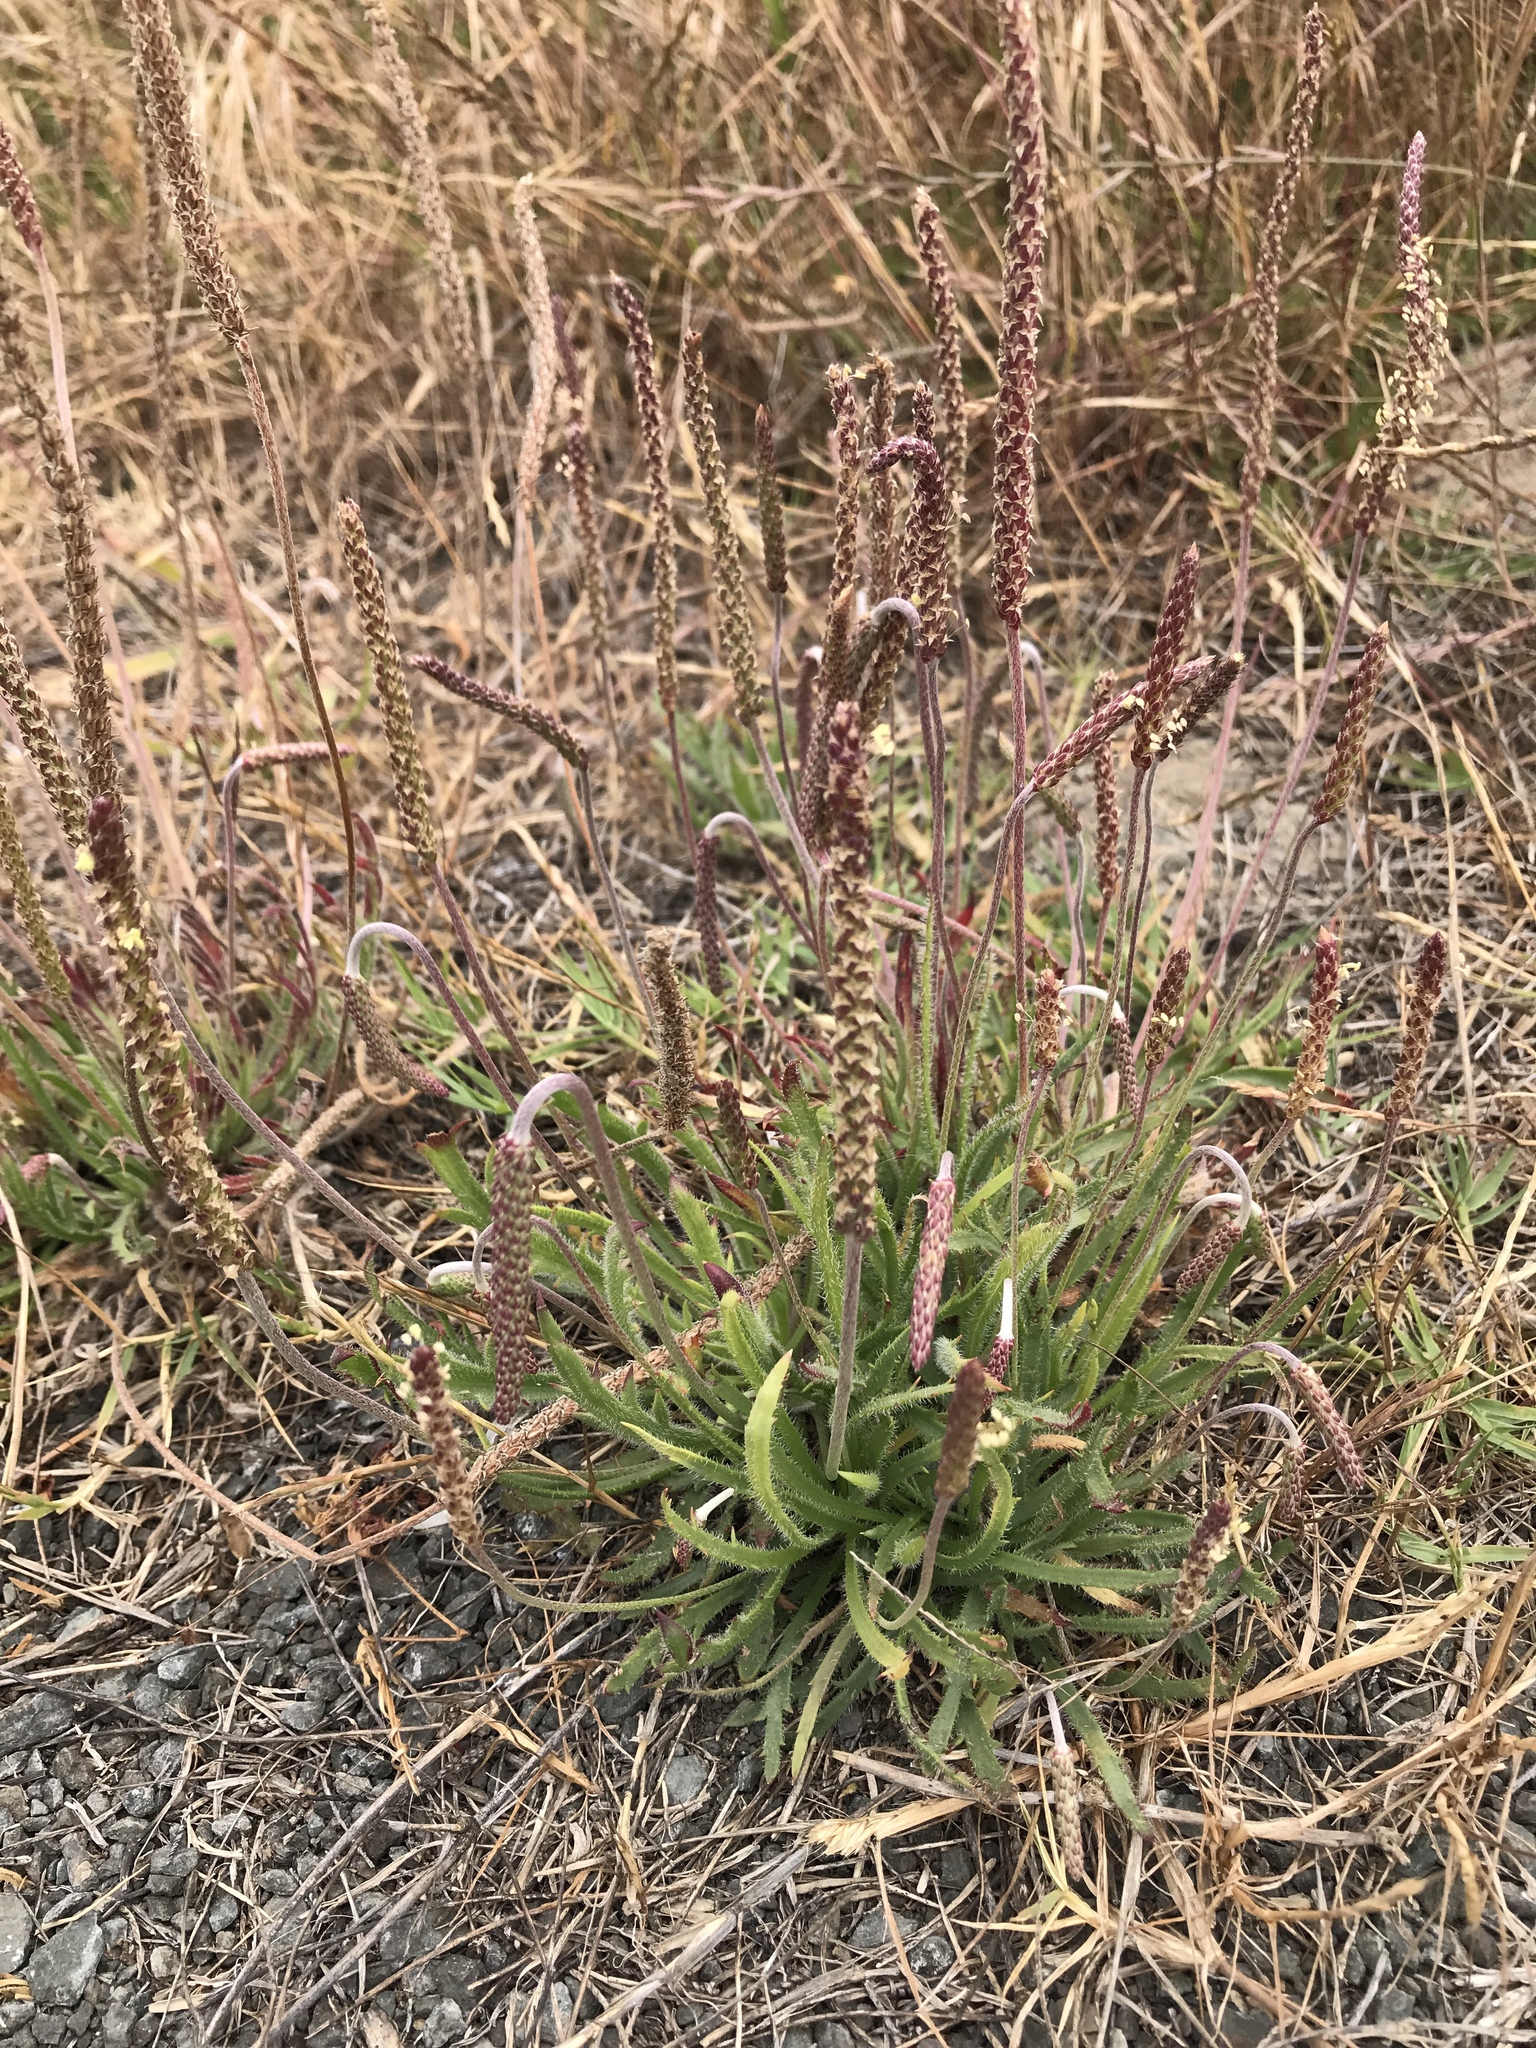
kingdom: Plantae
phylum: Tracheophyta
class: Magnoliopsida
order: Lamiales
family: Plantaginaceae
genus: Plantago
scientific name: Plantago coronopus
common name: Buck's-horn plantain
